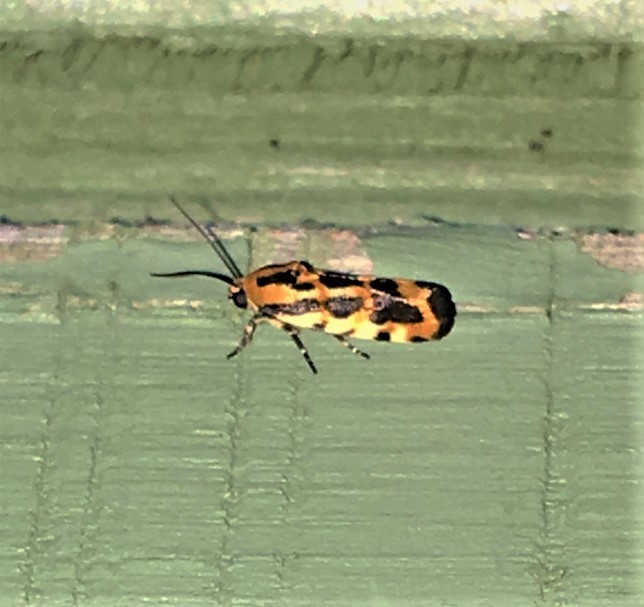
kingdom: Animalia
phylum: Arthropoda
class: Insecta
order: Lepidoptera
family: Noctuidae
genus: Acontia
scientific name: Acontia leo
